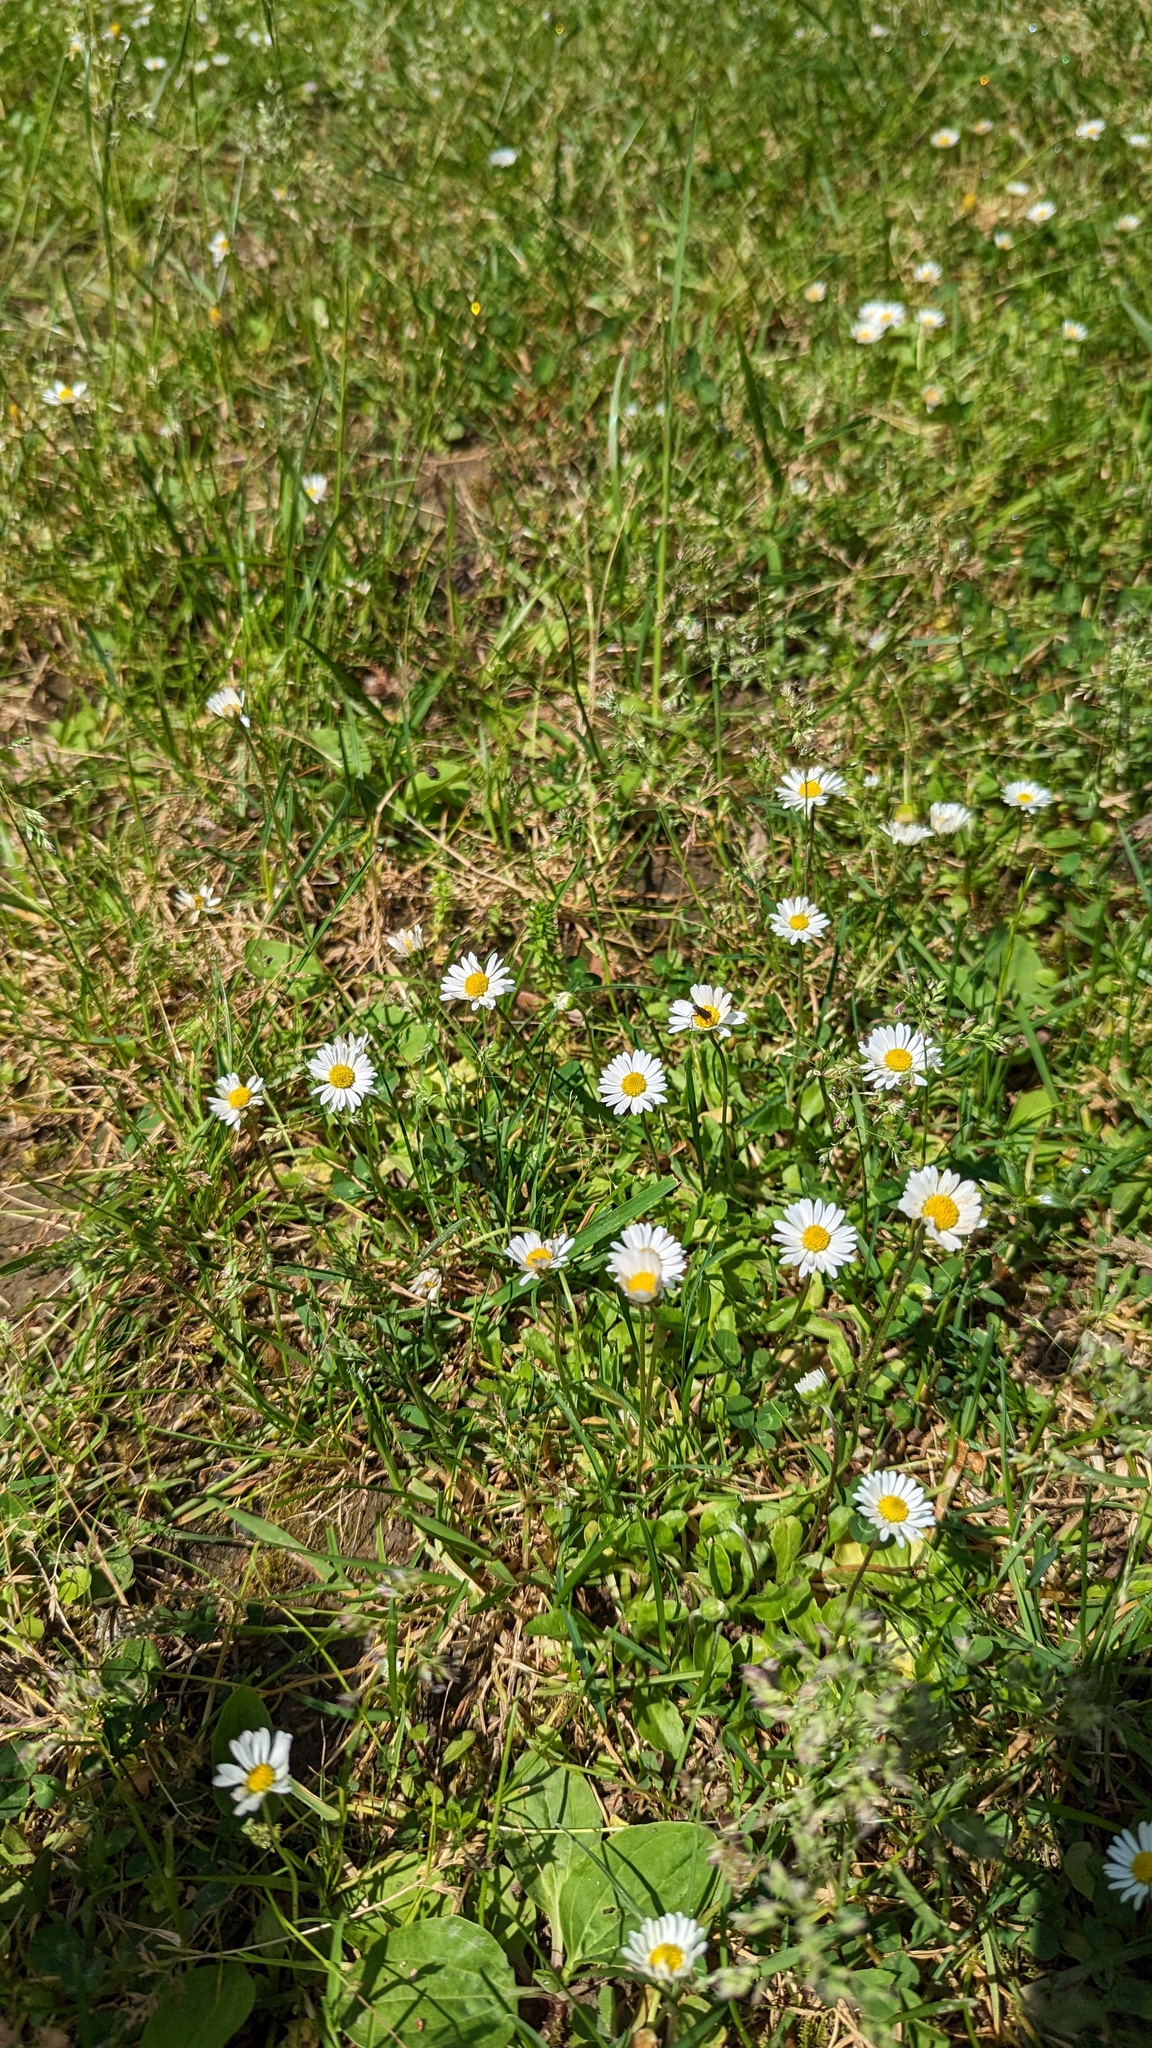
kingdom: Plantae
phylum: Tracheophyta
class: Magnoliopsida
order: Asterales
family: Asteraceae
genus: Bellis
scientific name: Bellis perennis
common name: Lawndaisy
